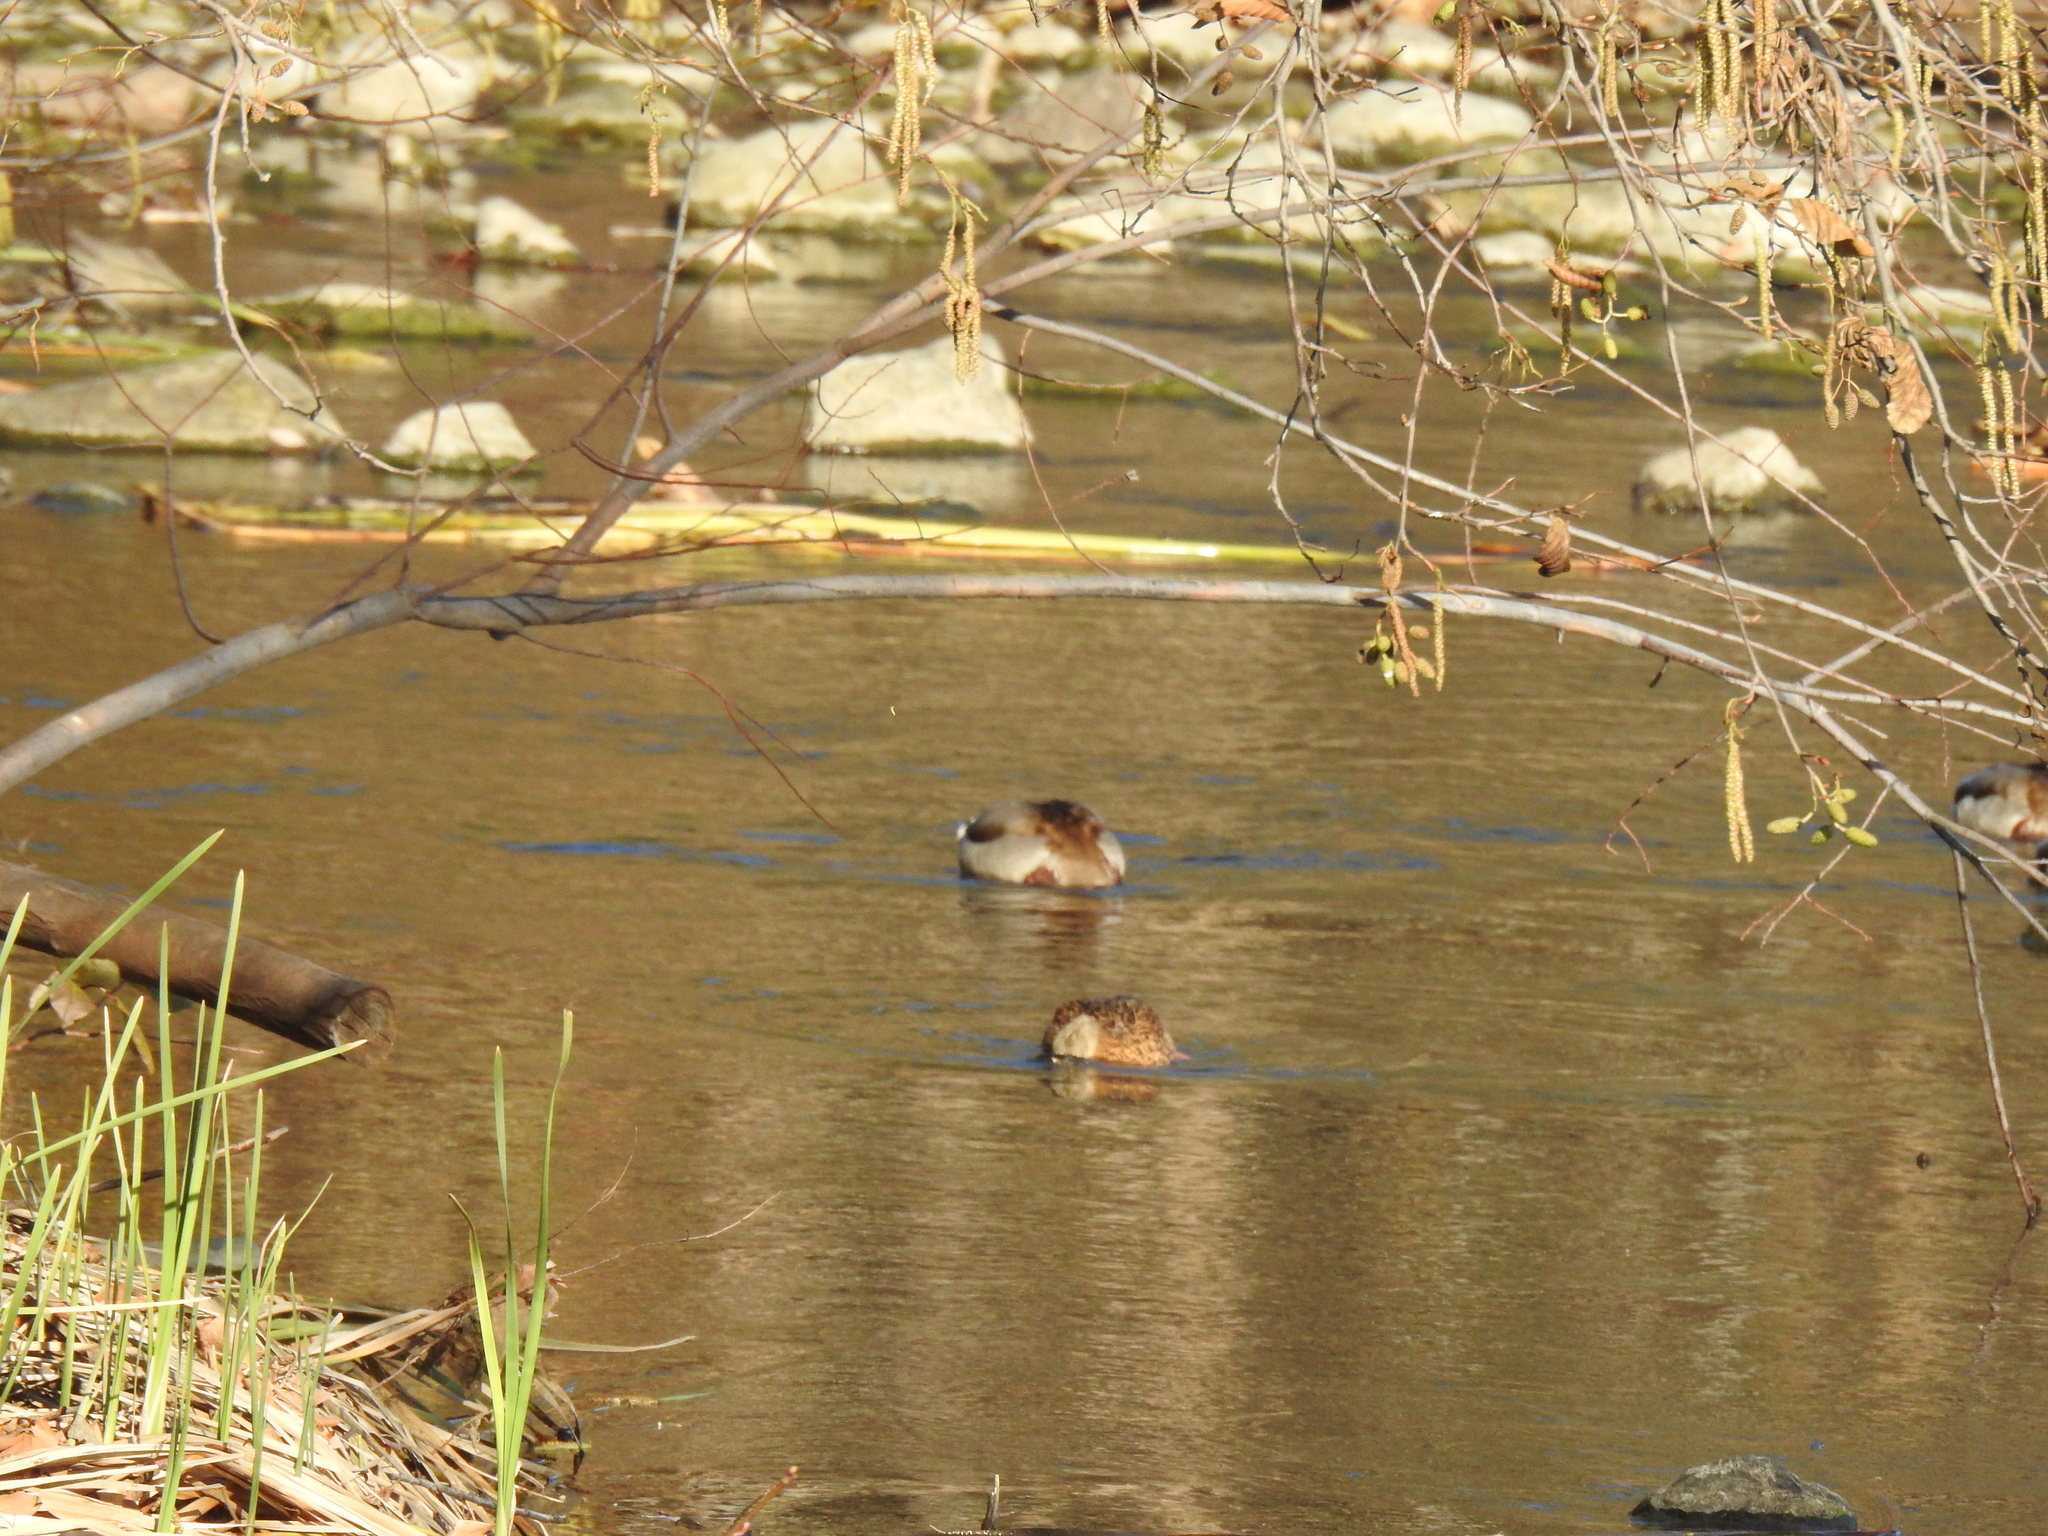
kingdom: Animalia
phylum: Chordata
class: Aves
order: Anseriformes
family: Anatidae
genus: Anas
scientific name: Anas platyrhynchos
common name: Mallard
